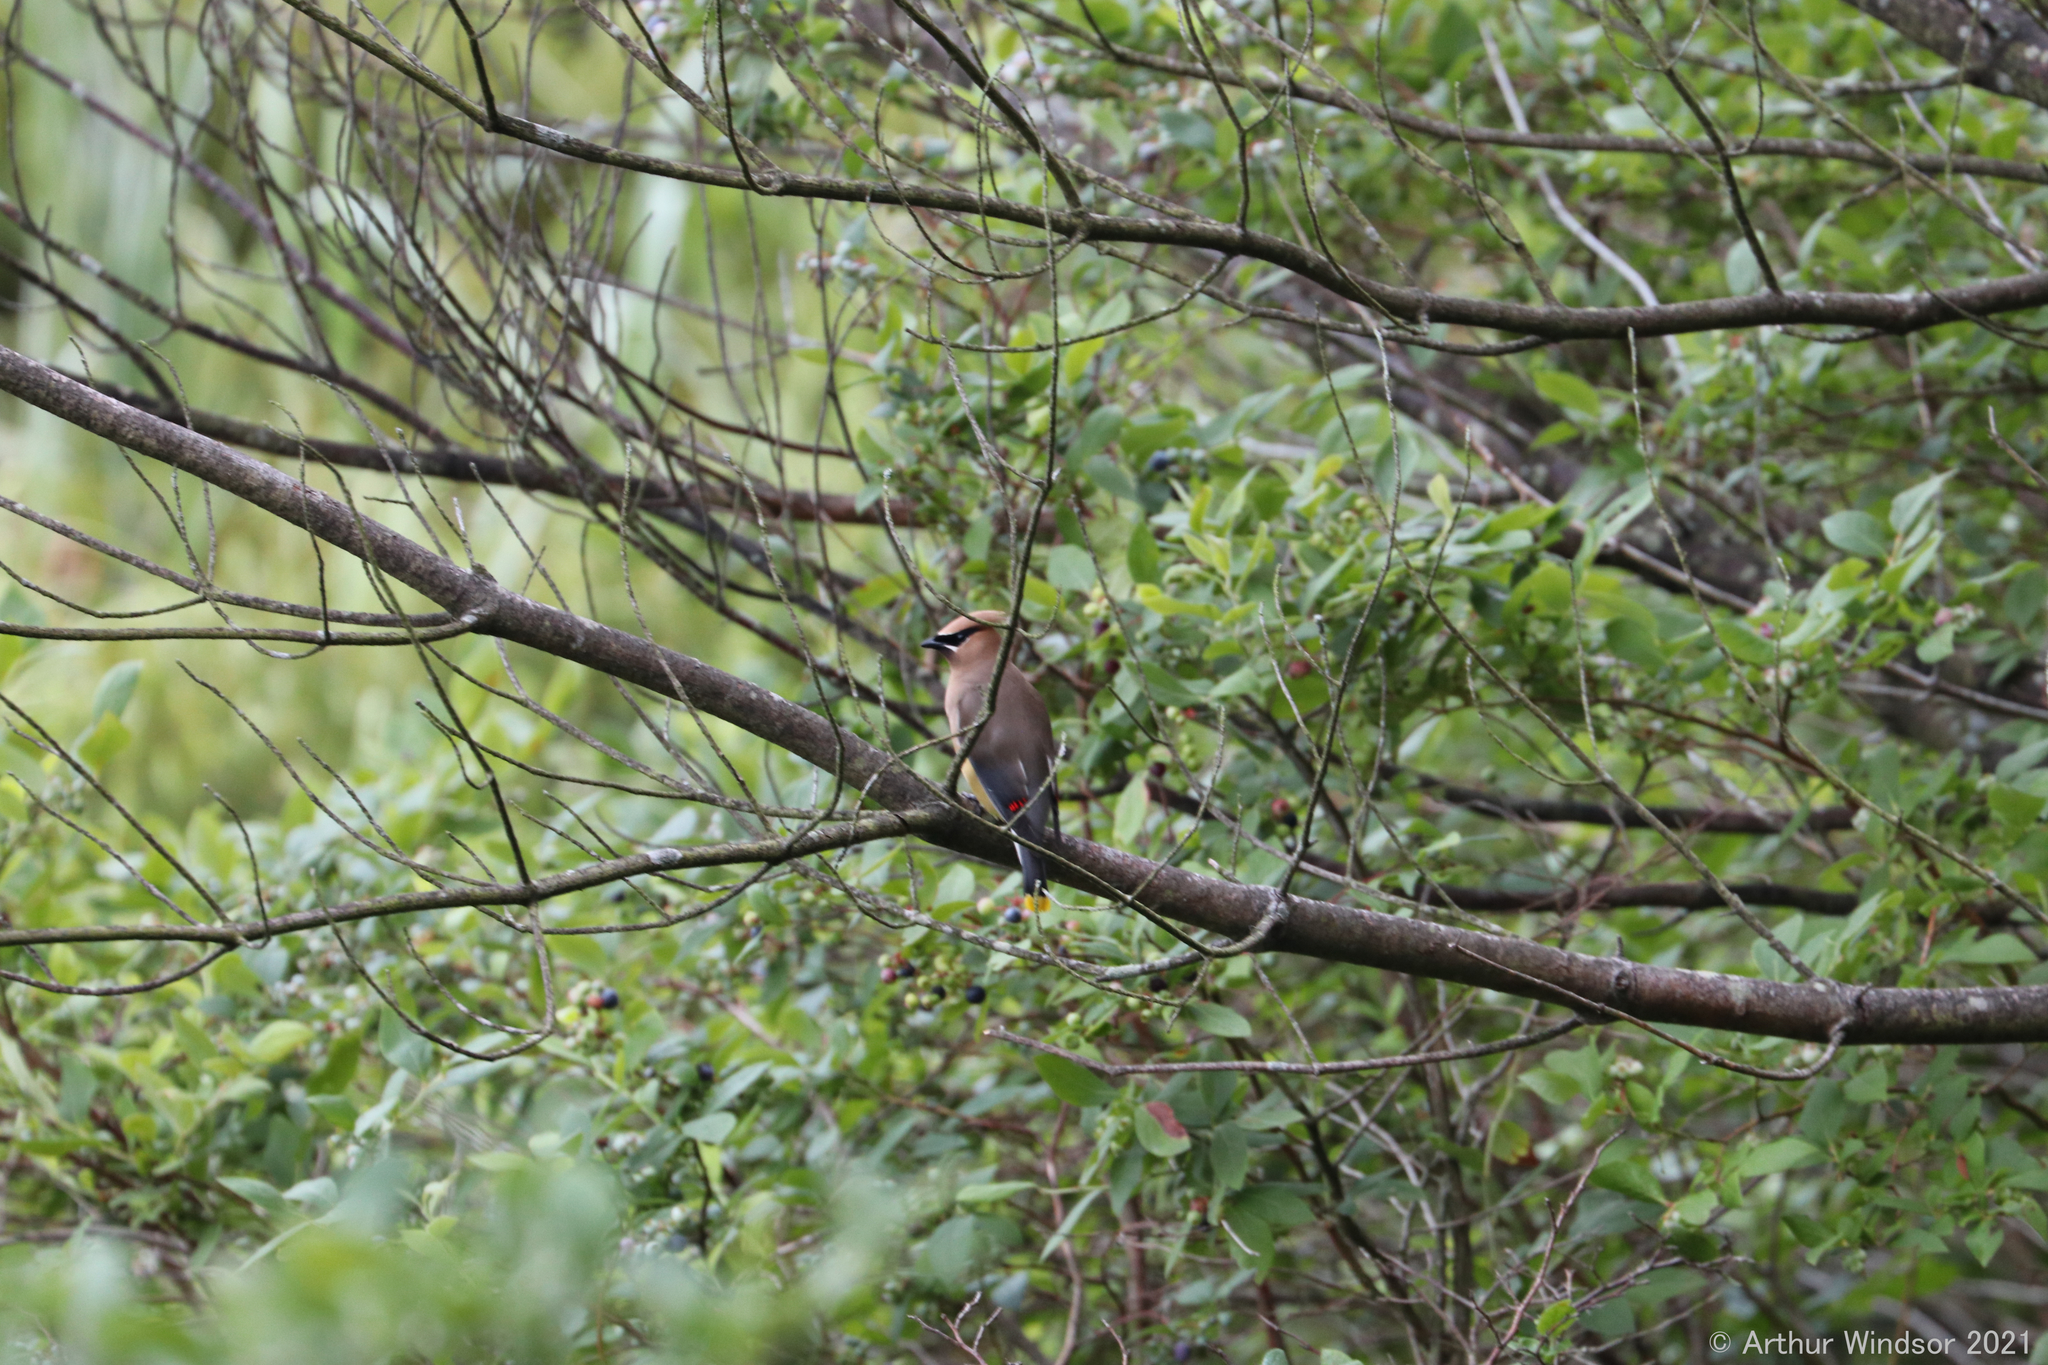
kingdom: Animalia
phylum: Chordata
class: Aves
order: Passeriformes
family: Bombycillidae
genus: Bombycilla
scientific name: Bombycilla cedrorum
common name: Cedar waxwing
